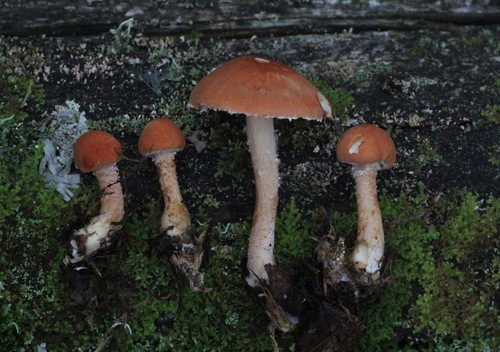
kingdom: Fungi
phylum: Basidiomycota
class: Agaricomycetes
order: Agaricales
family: Agaricaceae
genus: Cystodermella
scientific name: Cystodermella cinnabarina
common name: Cinnabar powdercap
